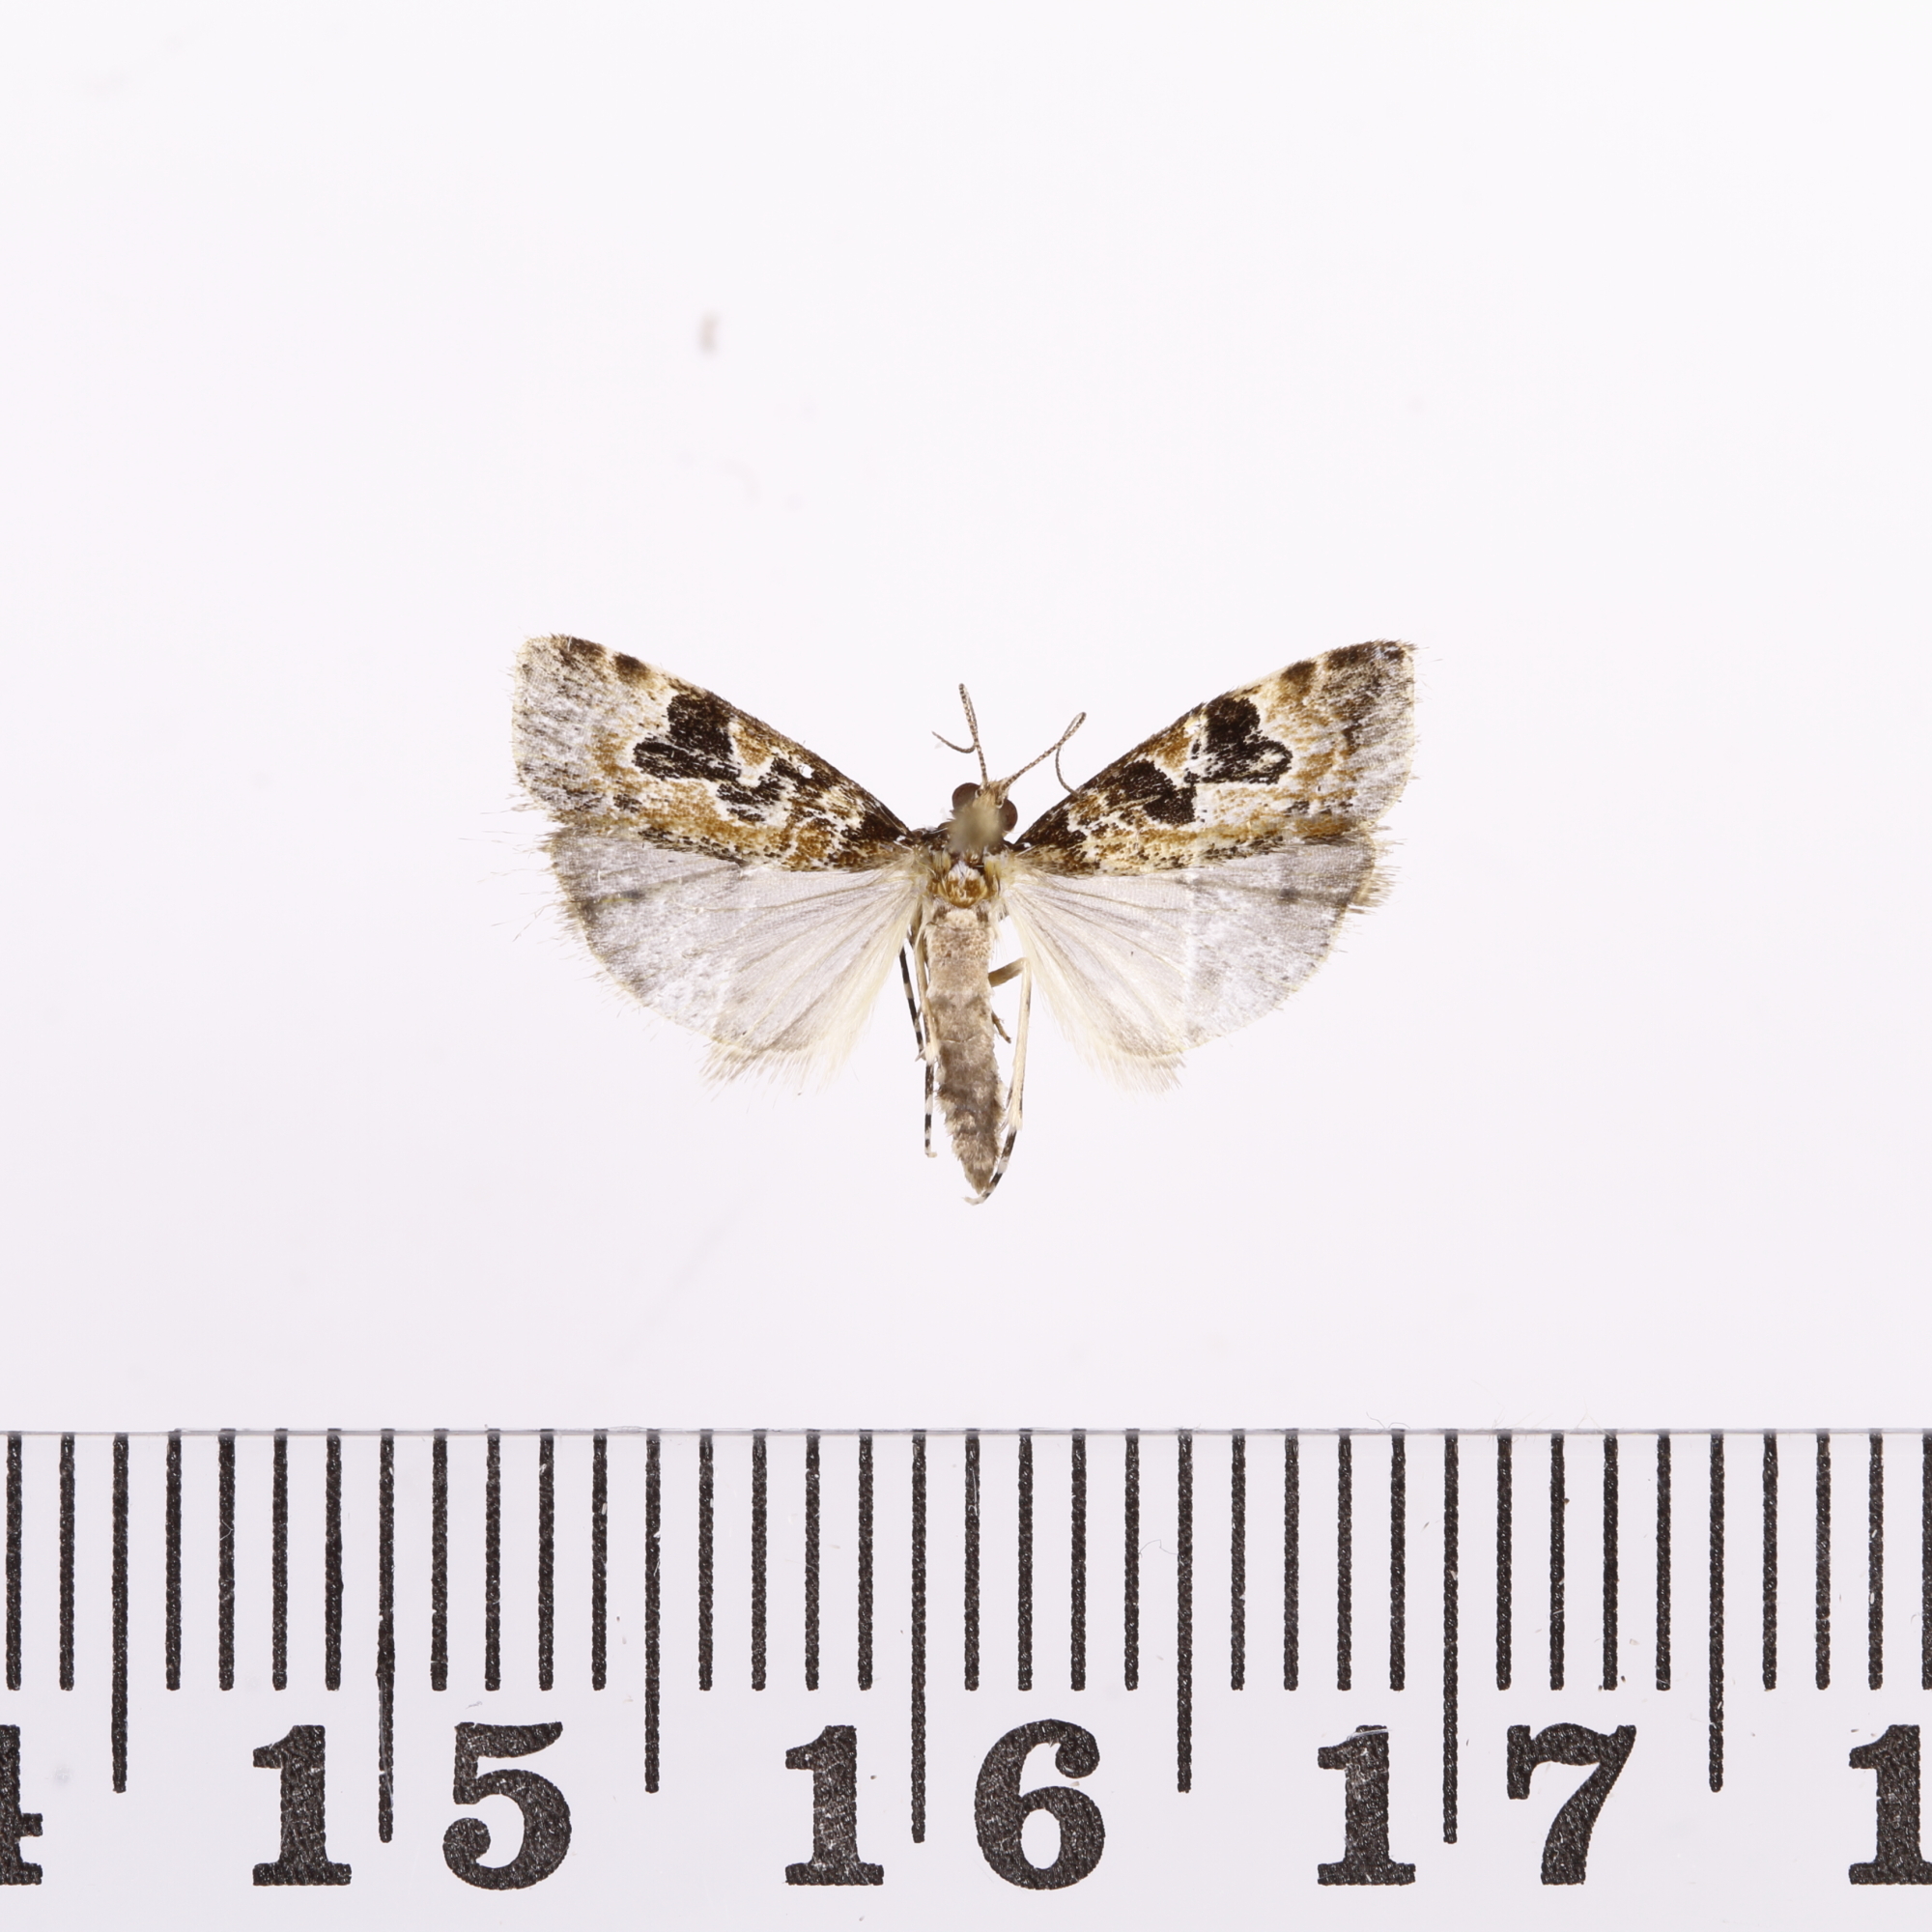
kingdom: Animalia
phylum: Arthropoda
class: Insecta
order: Lepidoptera
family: Crambidae
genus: Scoparia
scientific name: Scoparia ustimacula
